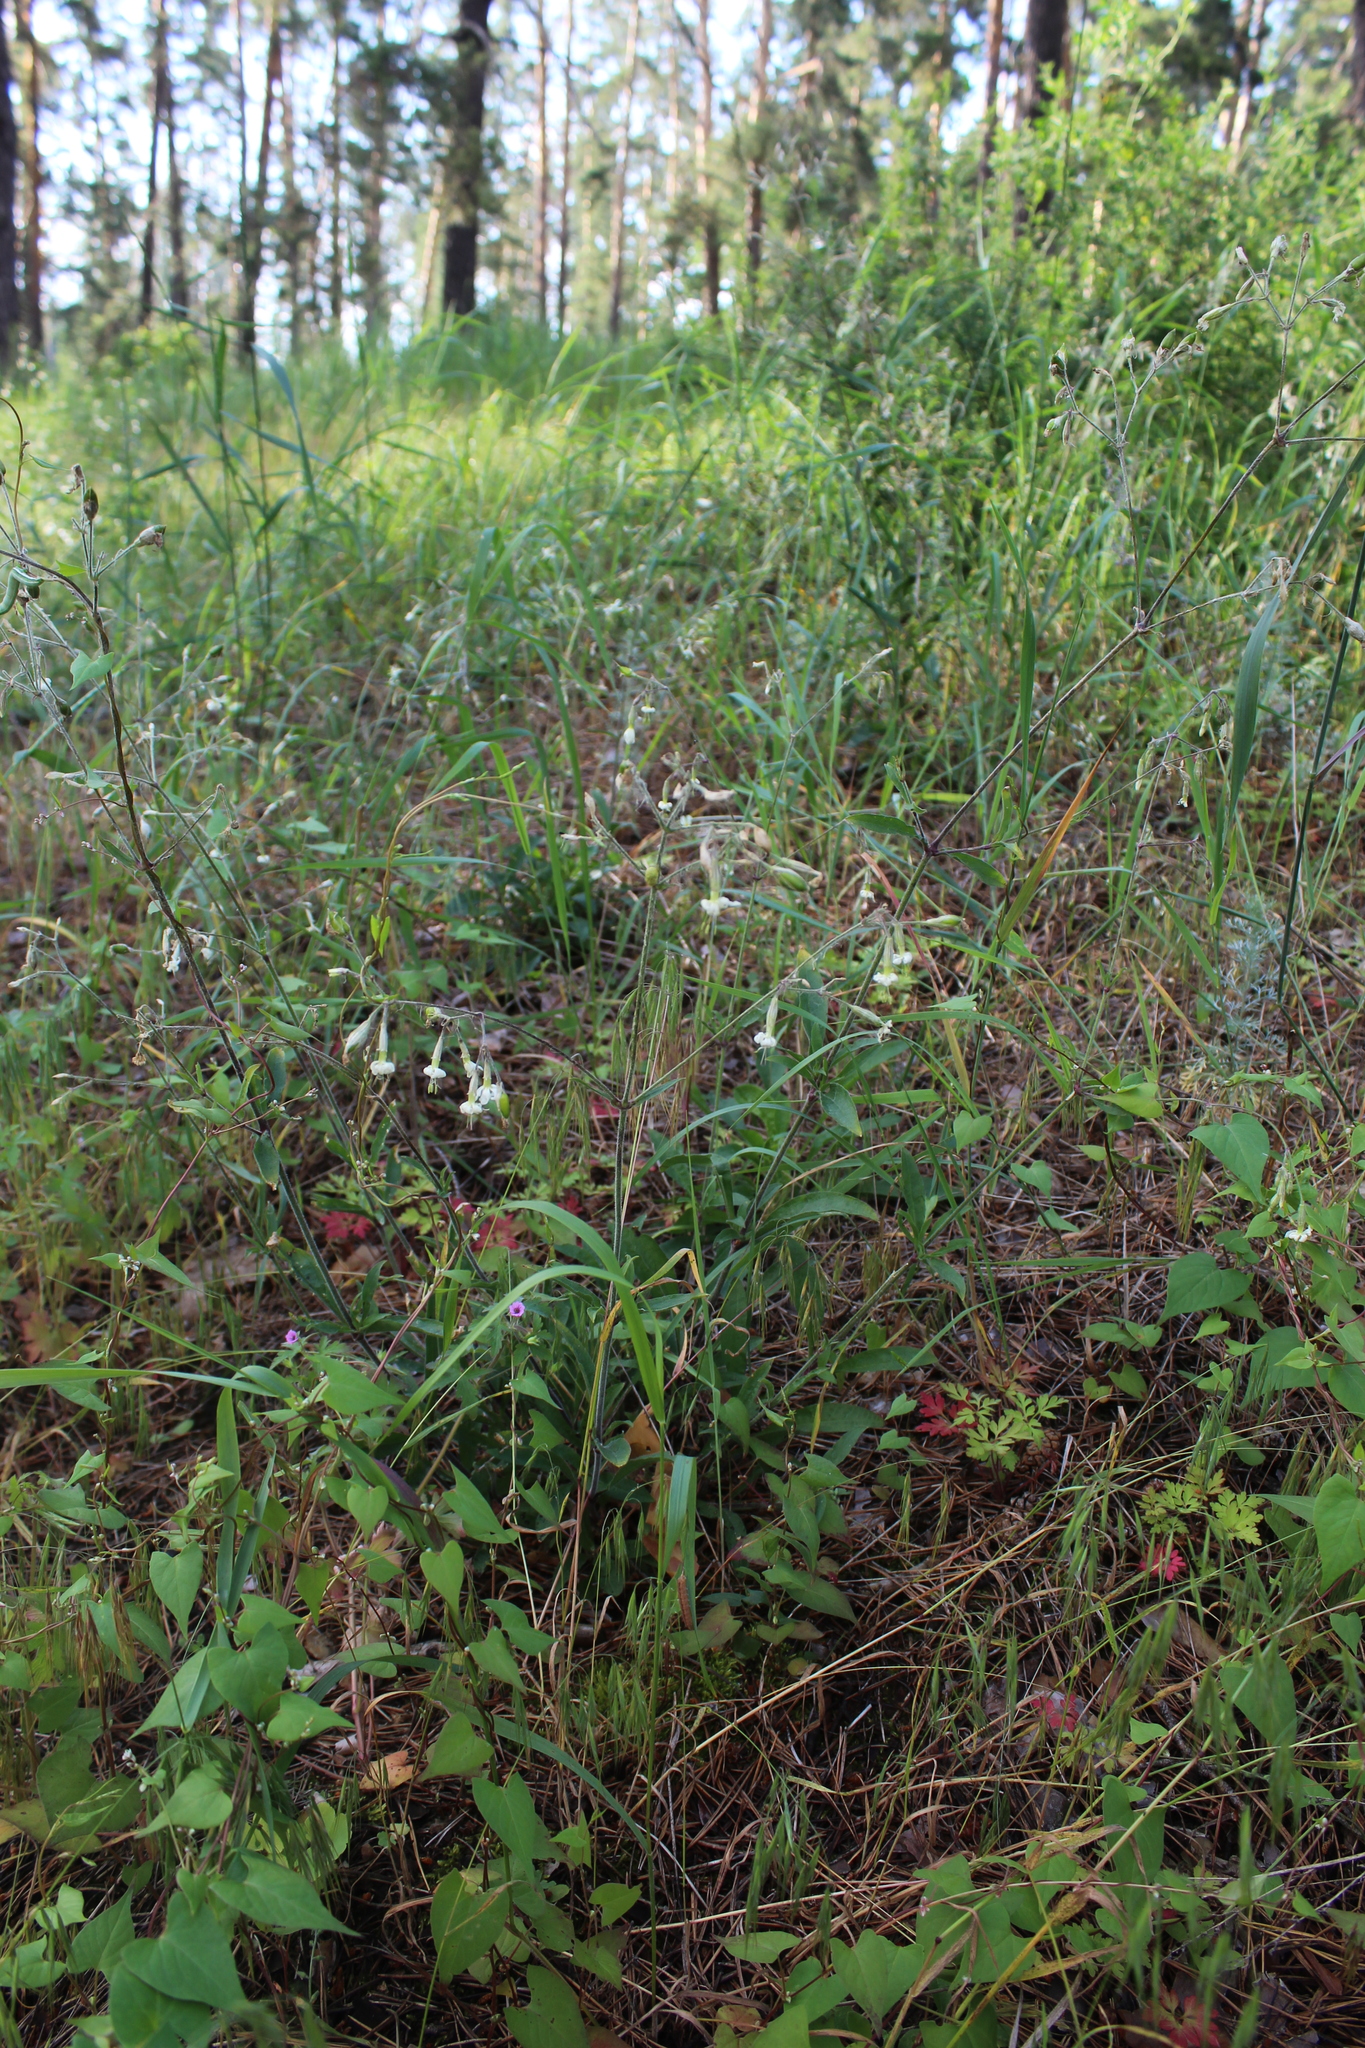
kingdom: Plantae
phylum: Tracheophyta
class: Magnoliopsida
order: Caryophyllales
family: Caryophyllaceae
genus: Silene
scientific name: Silene nutans
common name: Nottingham catchfly
